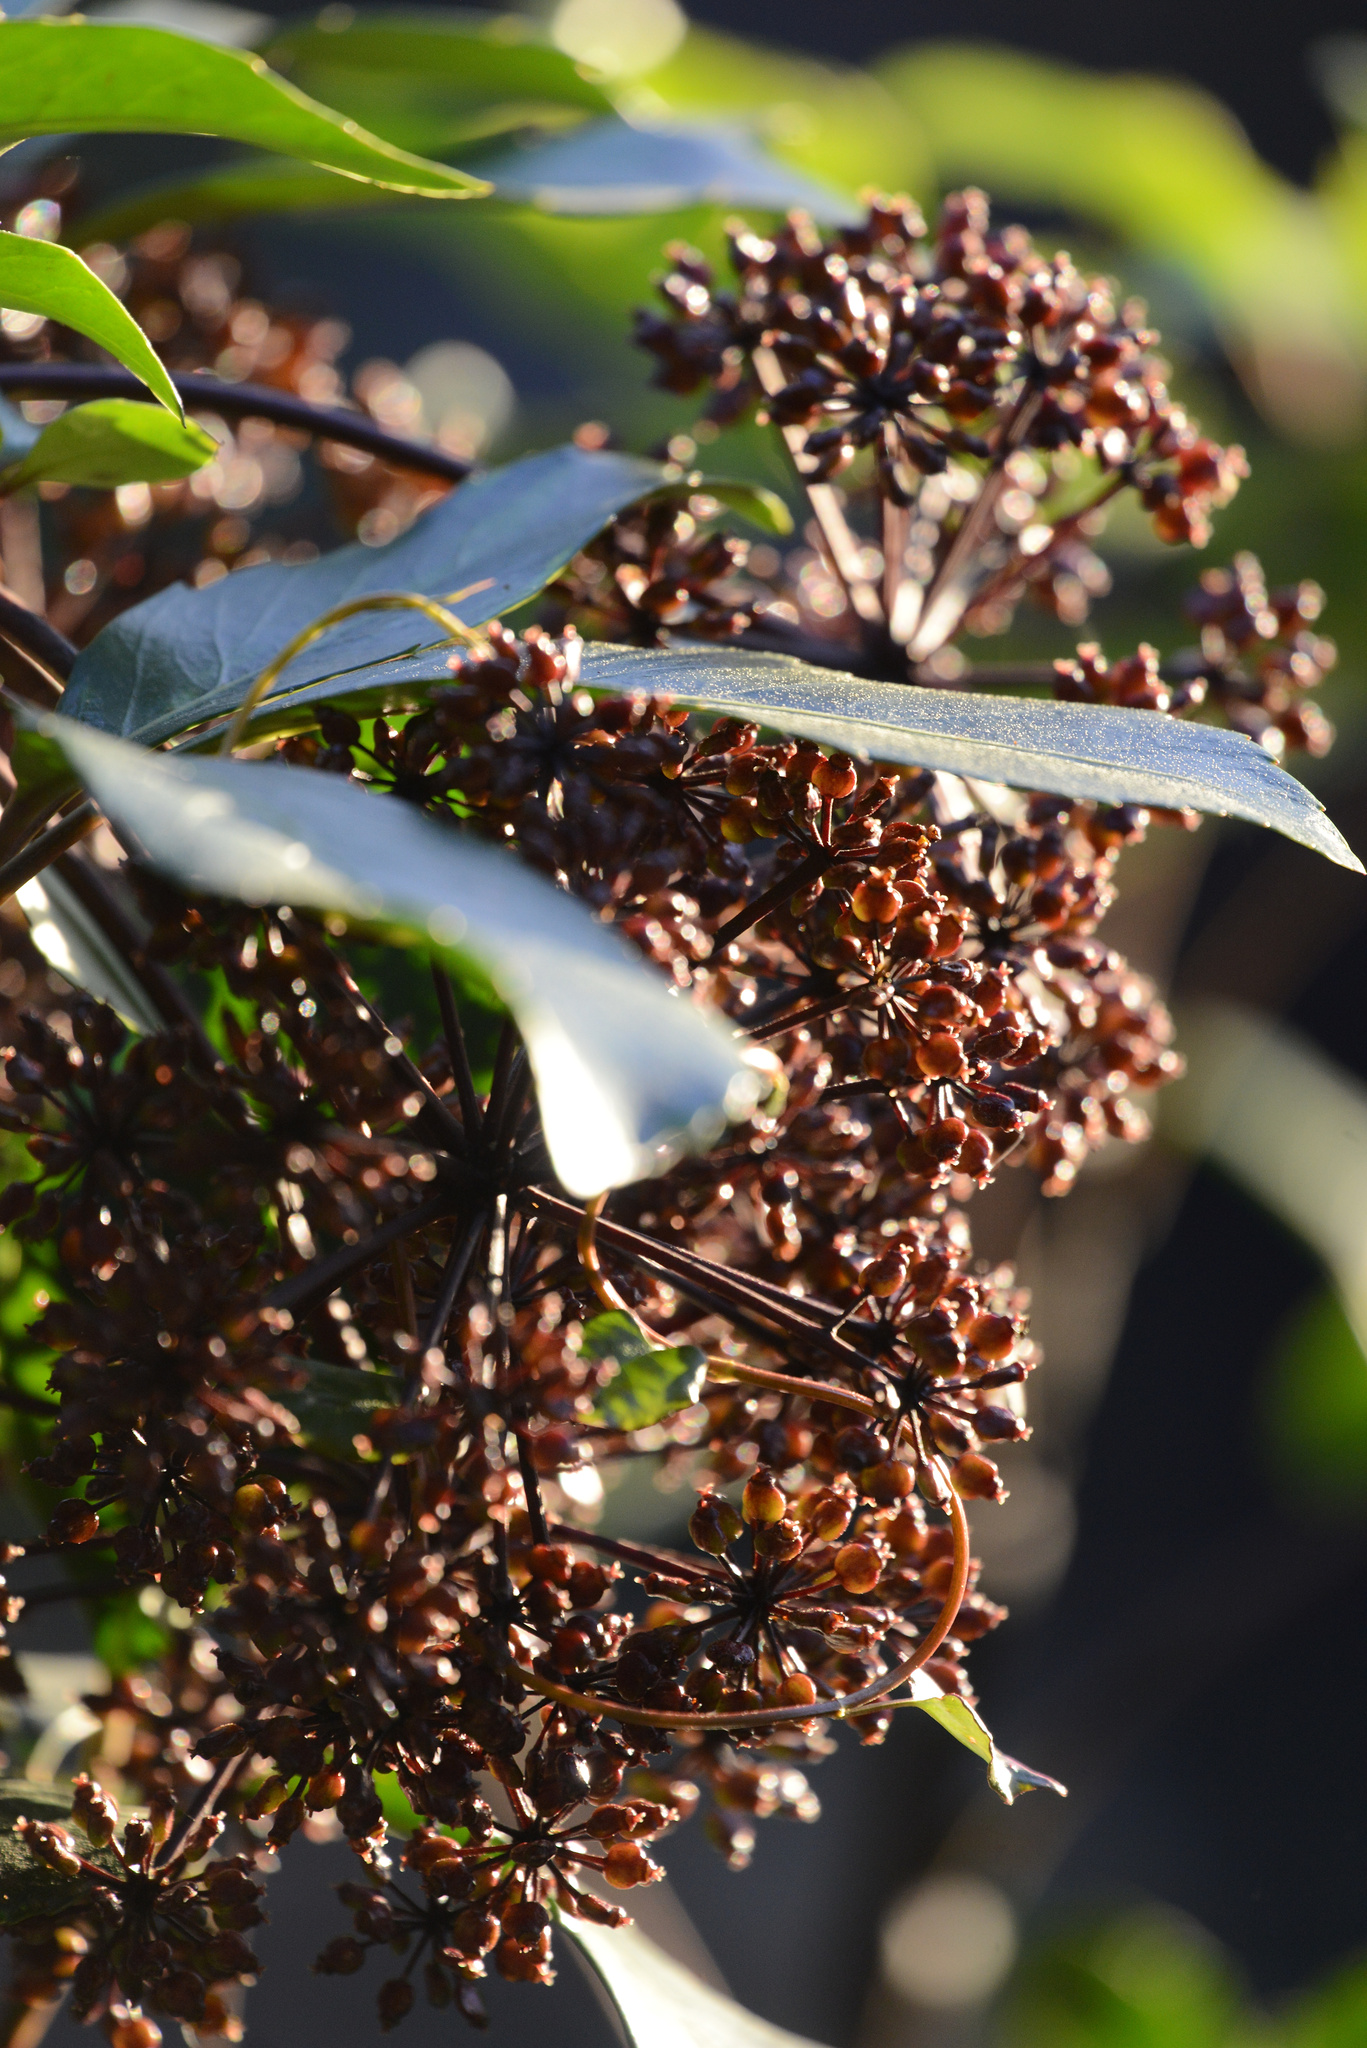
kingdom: Plantae
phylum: Tracheophyta
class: Magnoliopsida
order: Apiales
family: Araliaceae
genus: Neopanax
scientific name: Neopanax arboreus
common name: Five-fingers
